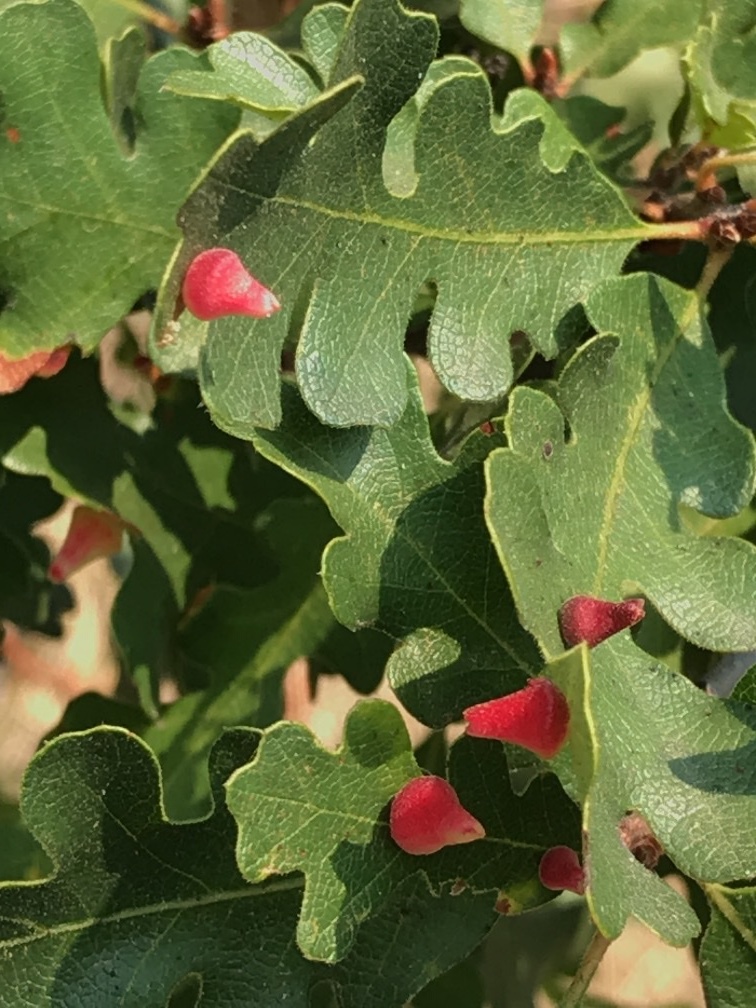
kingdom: Animalia
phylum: Arthropoda
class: Insecta
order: Hymenoptera
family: Cynipidae
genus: Andricus
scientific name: Andricus
